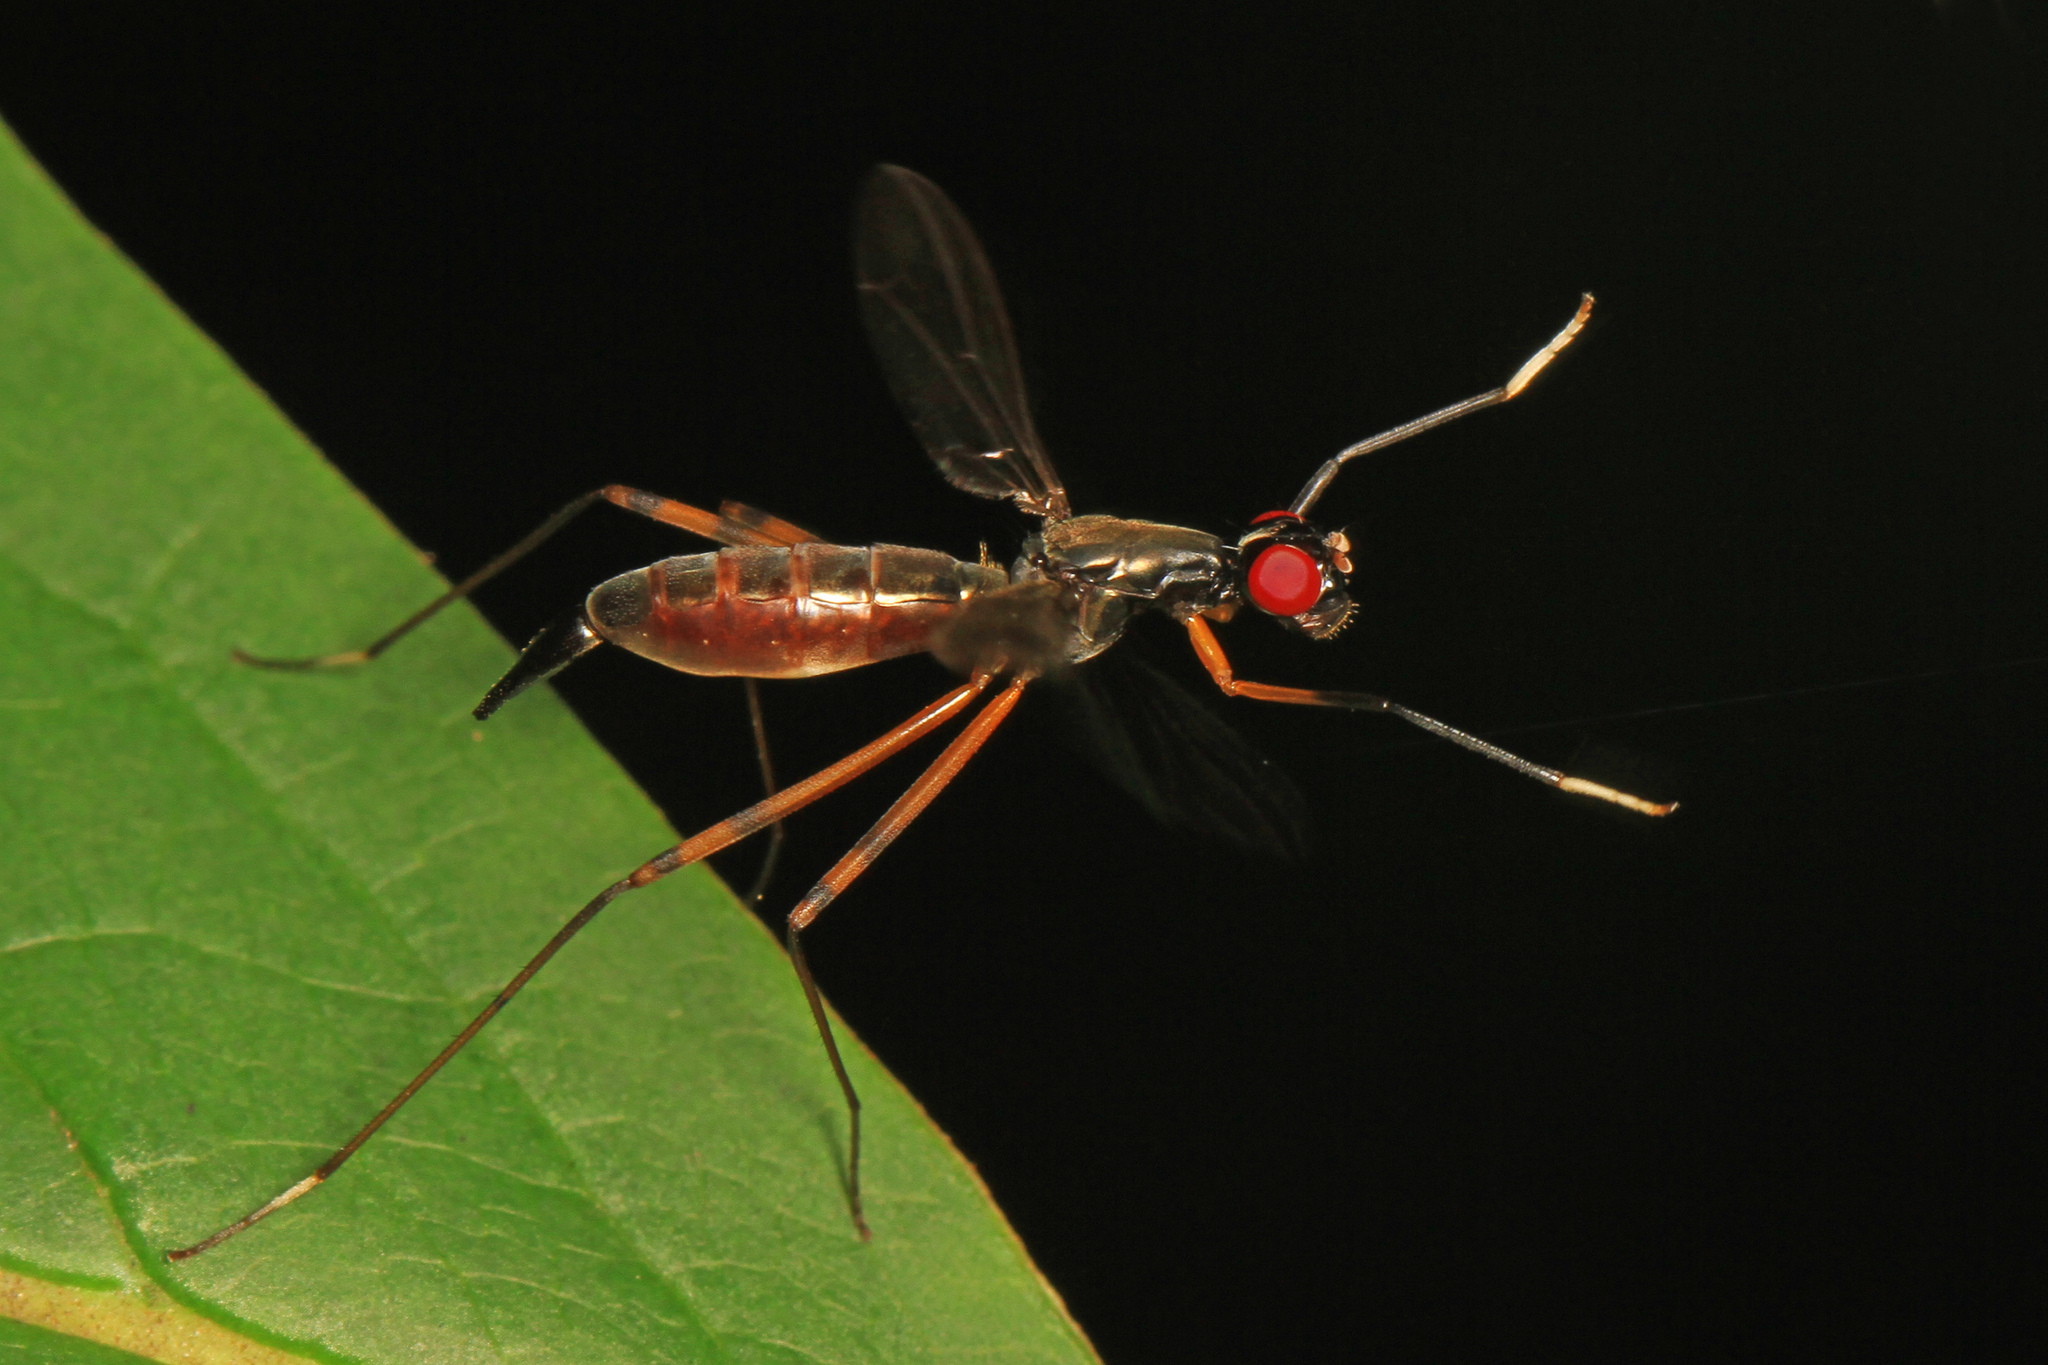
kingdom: Animalia
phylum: Arthropoda
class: Insecta
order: Diptera
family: Micropezidae
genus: Rainieria
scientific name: Rainieria antennaepes
